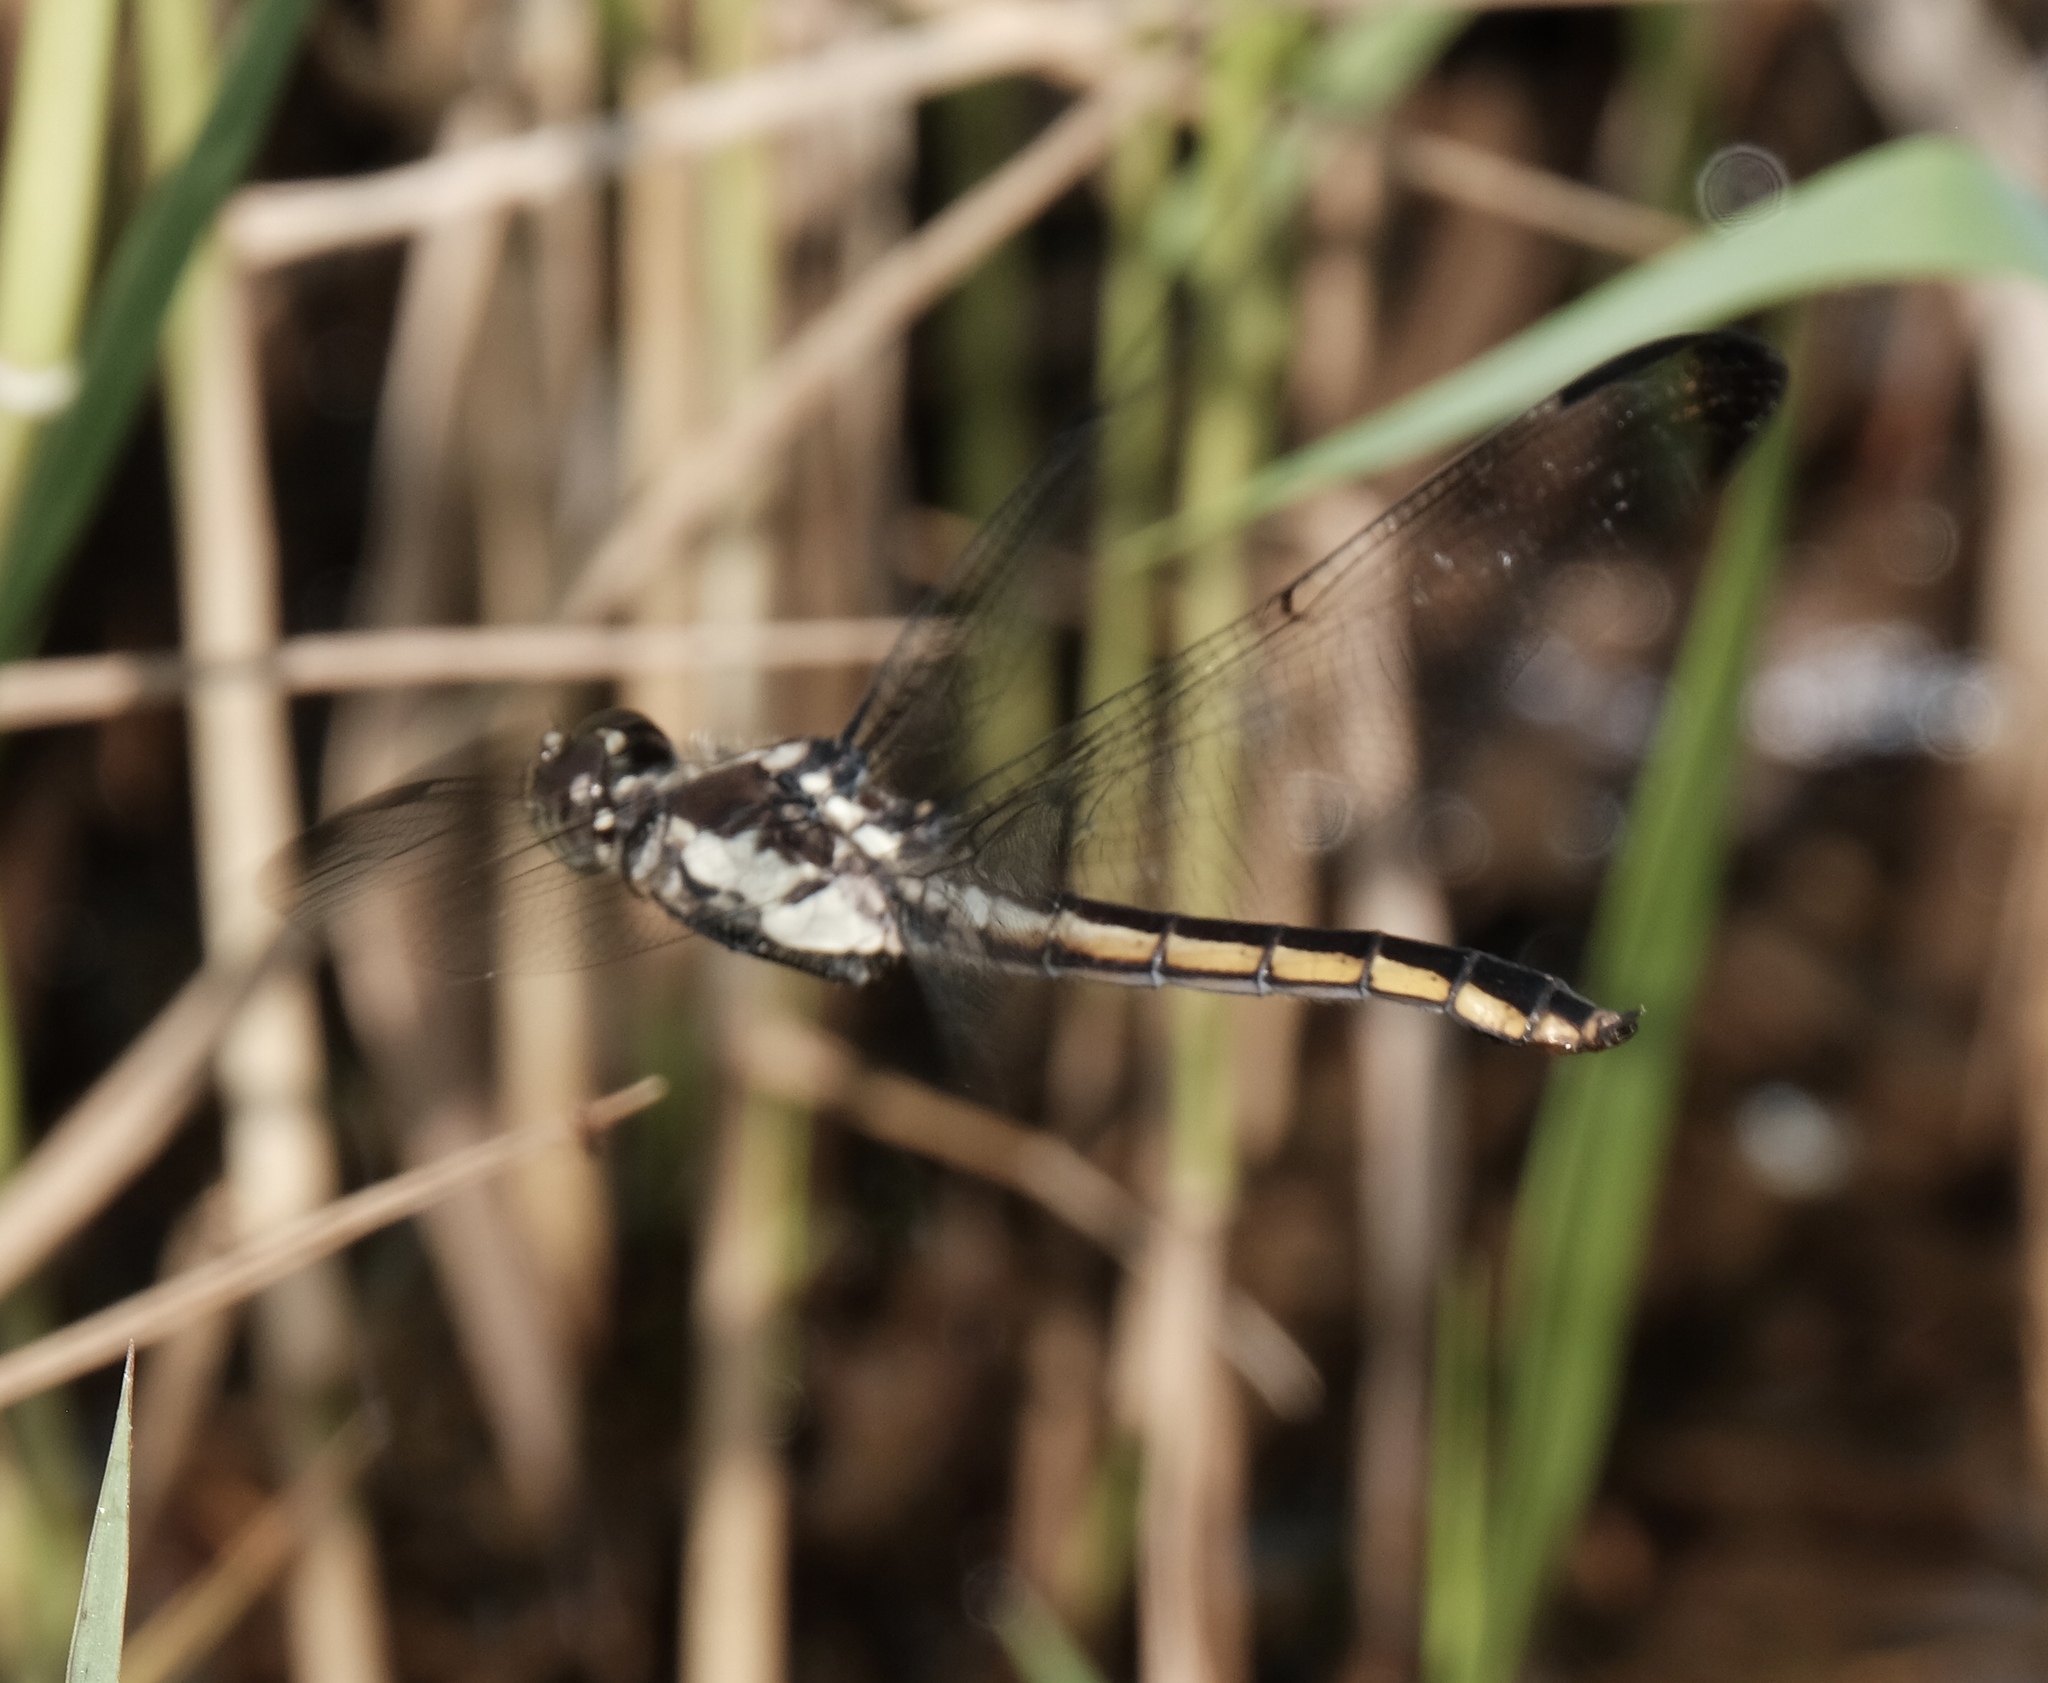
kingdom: Animalia
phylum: Arthropoda
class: Insecta
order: Odonata
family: Libellulidae
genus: Libellula
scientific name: Libellula incesta
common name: Slaty skimmer
